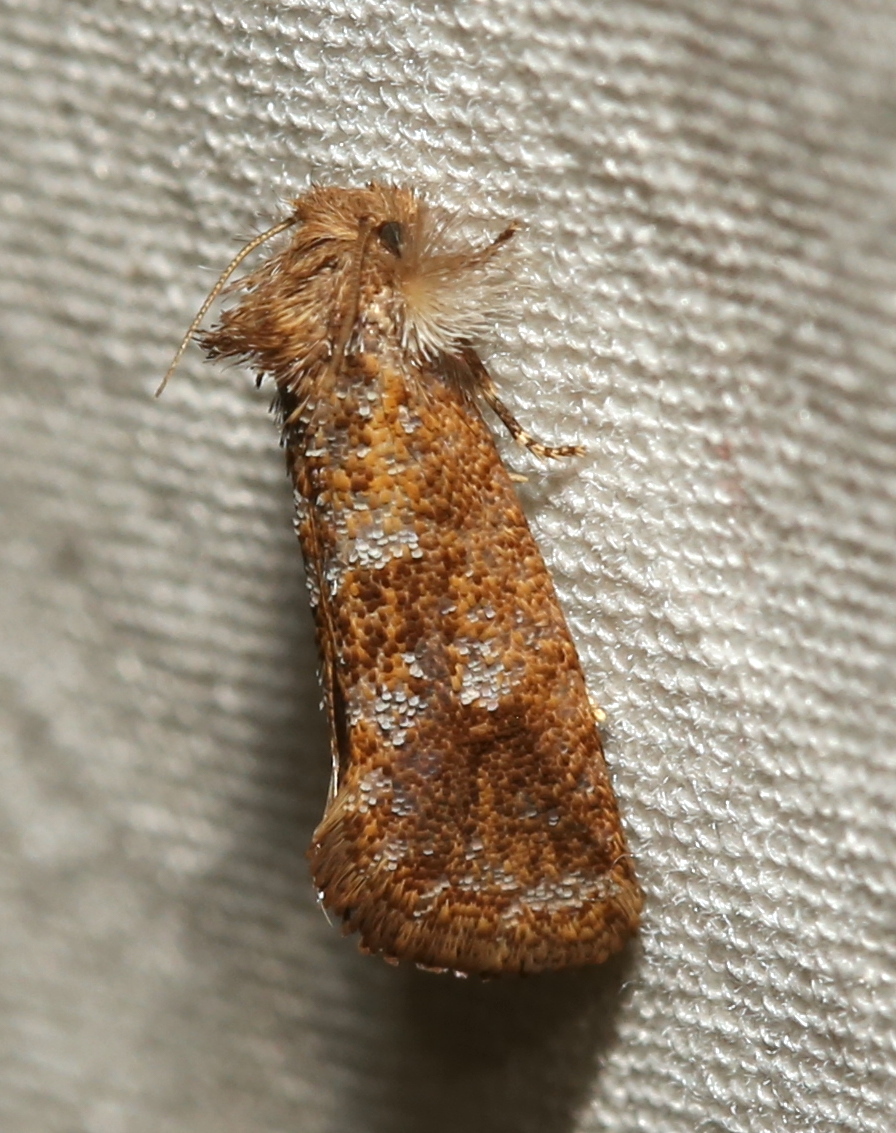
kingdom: Animalia
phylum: Arthropoda
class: Insecta
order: Lepidoptera
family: Tineidae
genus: Acrolophus
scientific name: Acrolophus panamae
